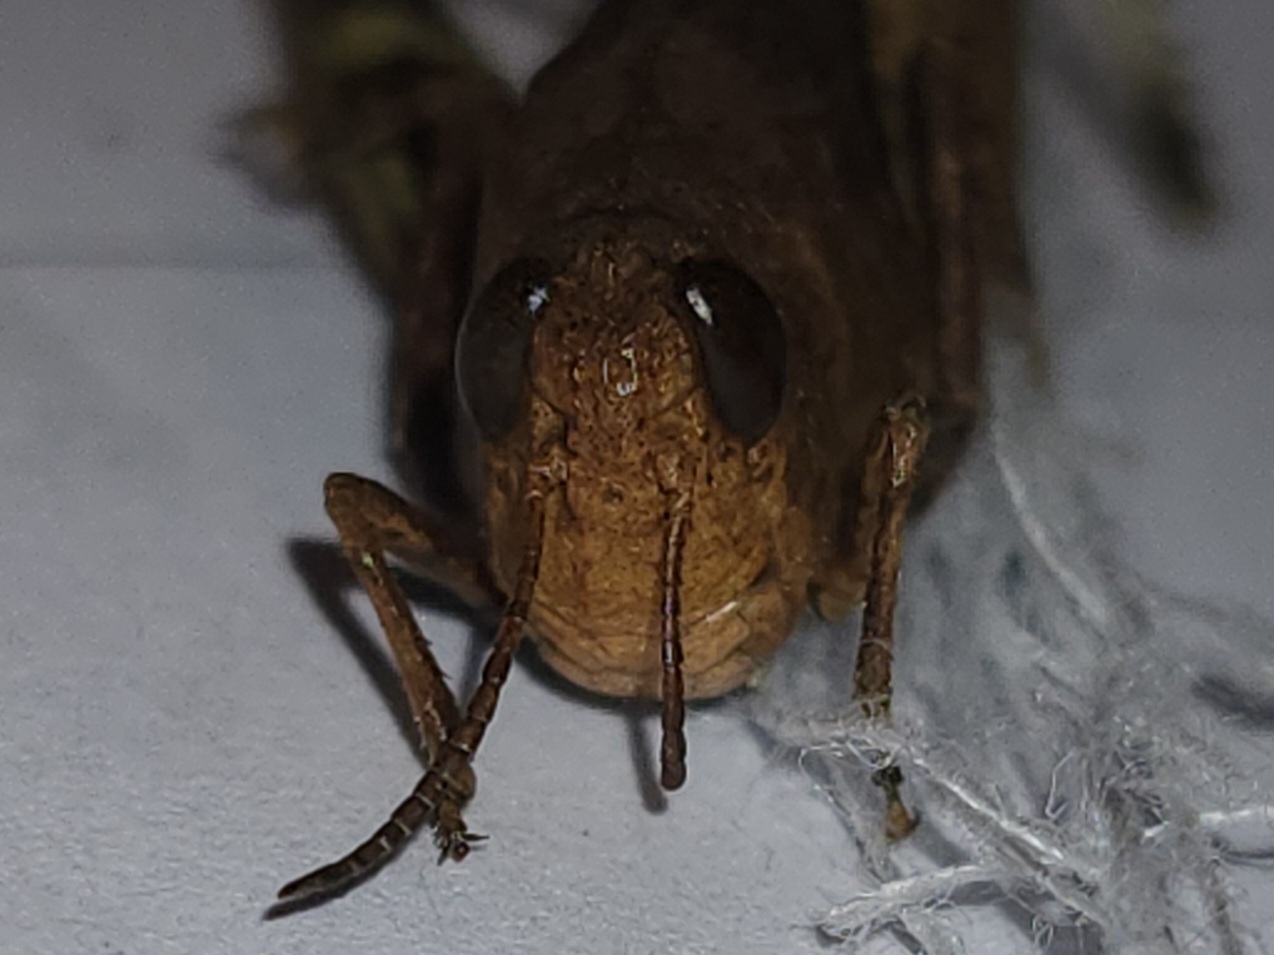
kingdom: Animalia
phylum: Arthropoda
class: Insecta
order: Orthoptera
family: Acrididae
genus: Arphia
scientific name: Arphia granulata
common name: Southern yellow-winged grasshopper
